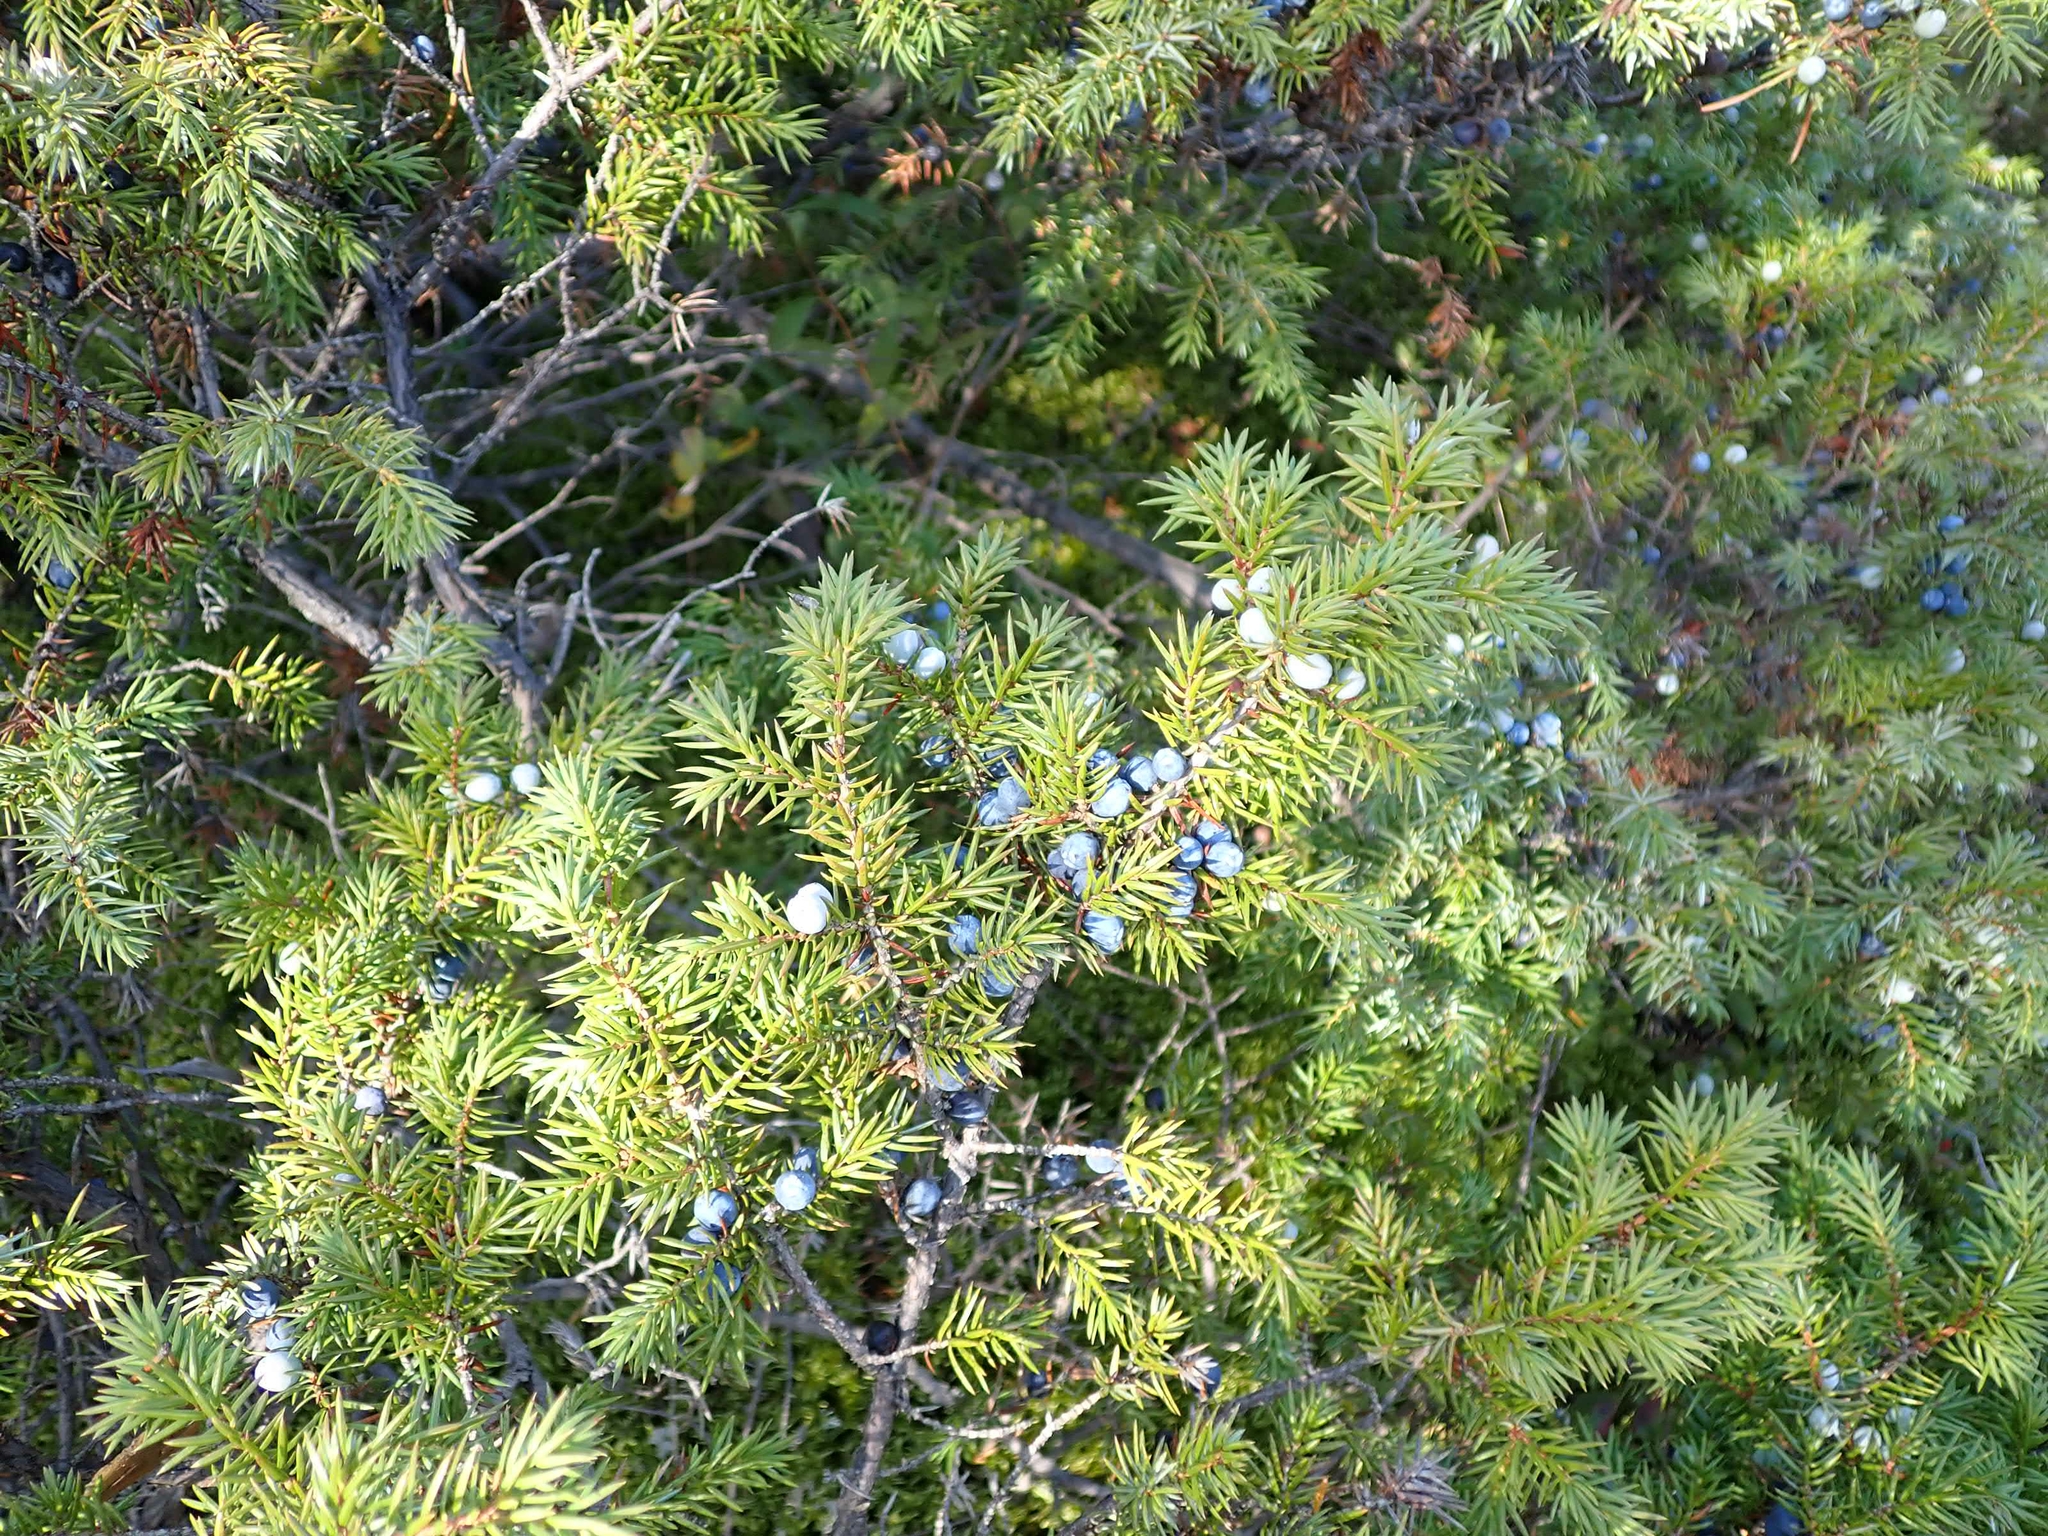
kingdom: Plantae
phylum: Tracheophyta
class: Pinopsida
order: Pinales
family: Cupressaceae
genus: Juniperus
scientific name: Juniperus communis
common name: Common juniper
